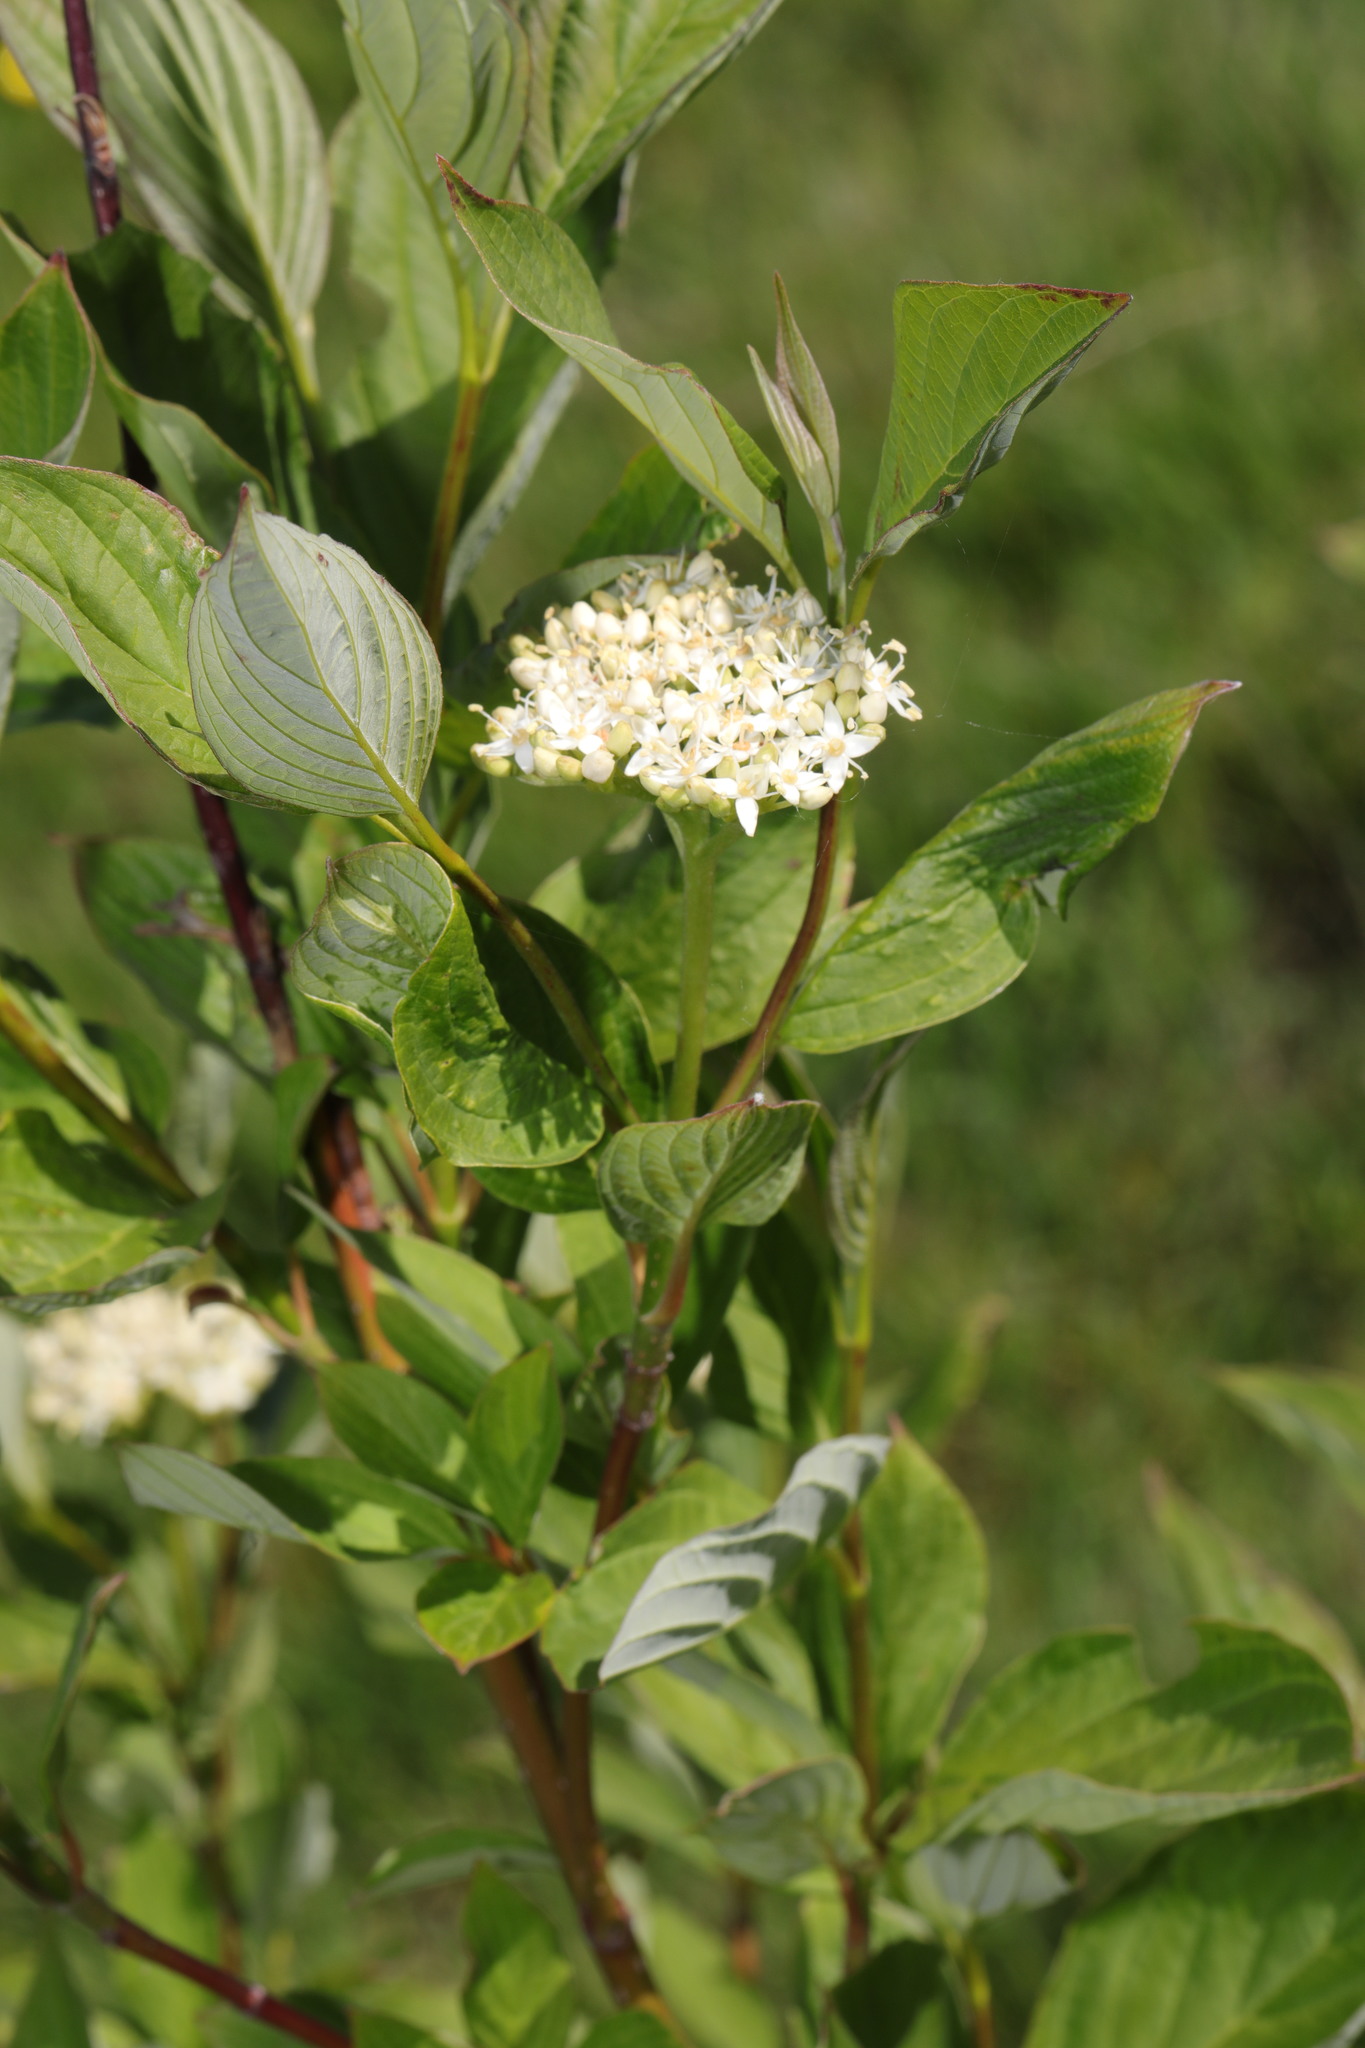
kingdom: Plantae
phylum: Tracheophyta
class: Magnoliopsida
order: Cornales
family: Cornaceae
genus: Cornus
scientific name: Cornus sericea
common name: Red-osier dogwood
